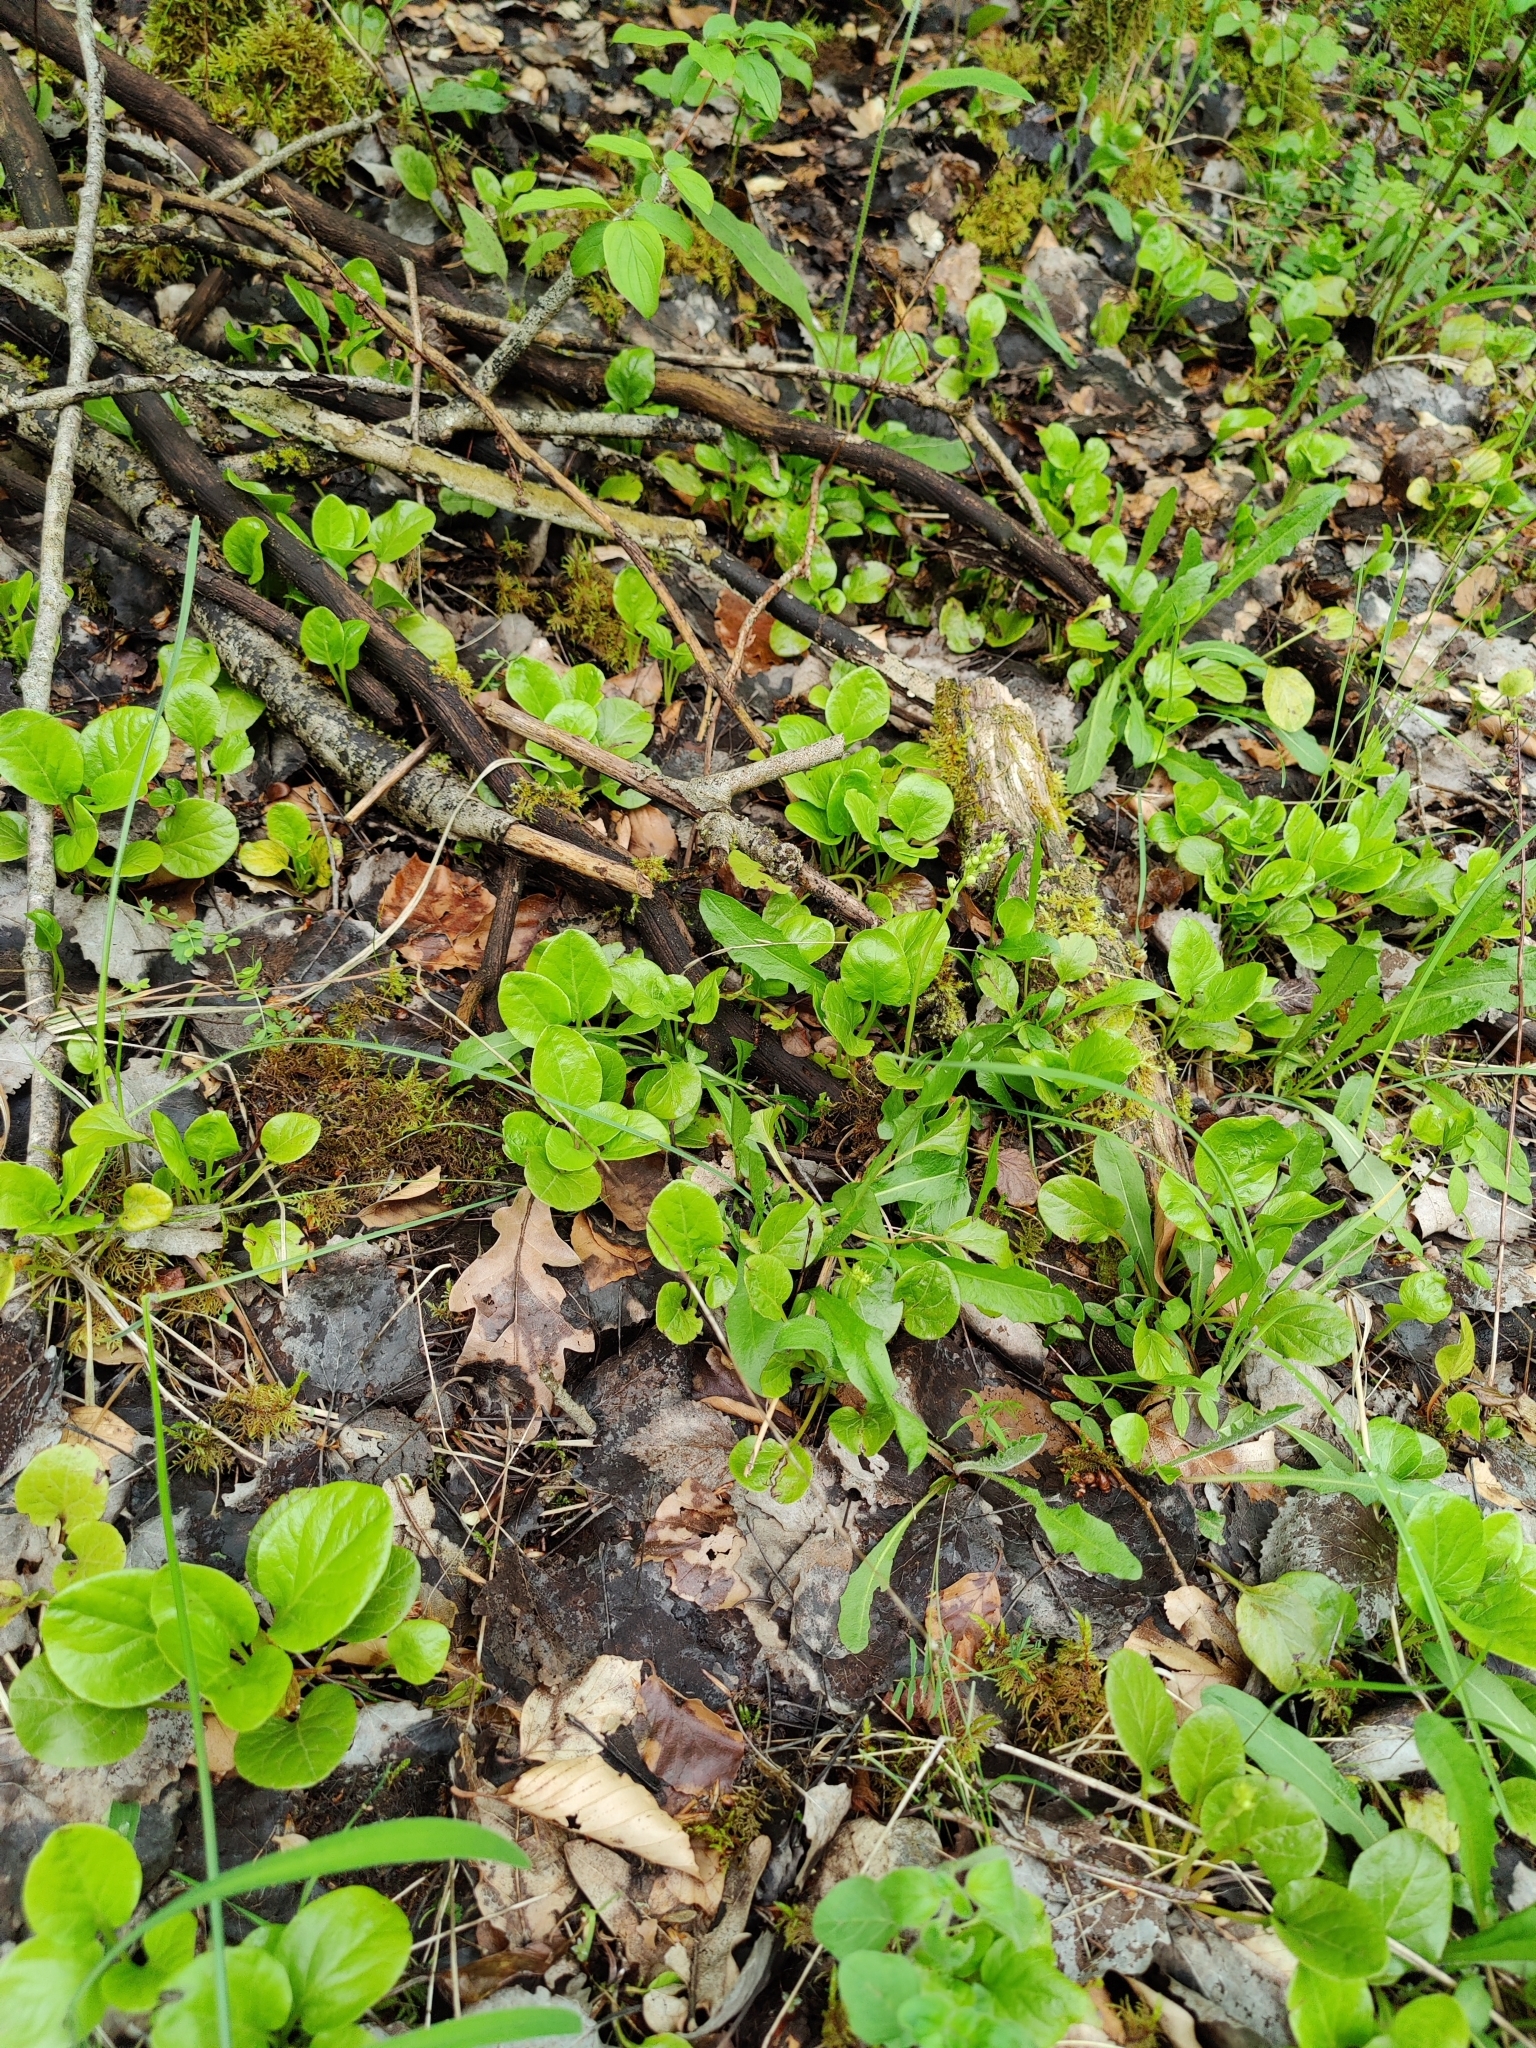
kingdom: Plantae
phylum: Tracheophyta
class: Magnoliopsida
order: Ericales
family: Ericaceae
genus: Pyrola
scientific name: Pyrola rotundifolia
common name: Round-leaved wintergreen
